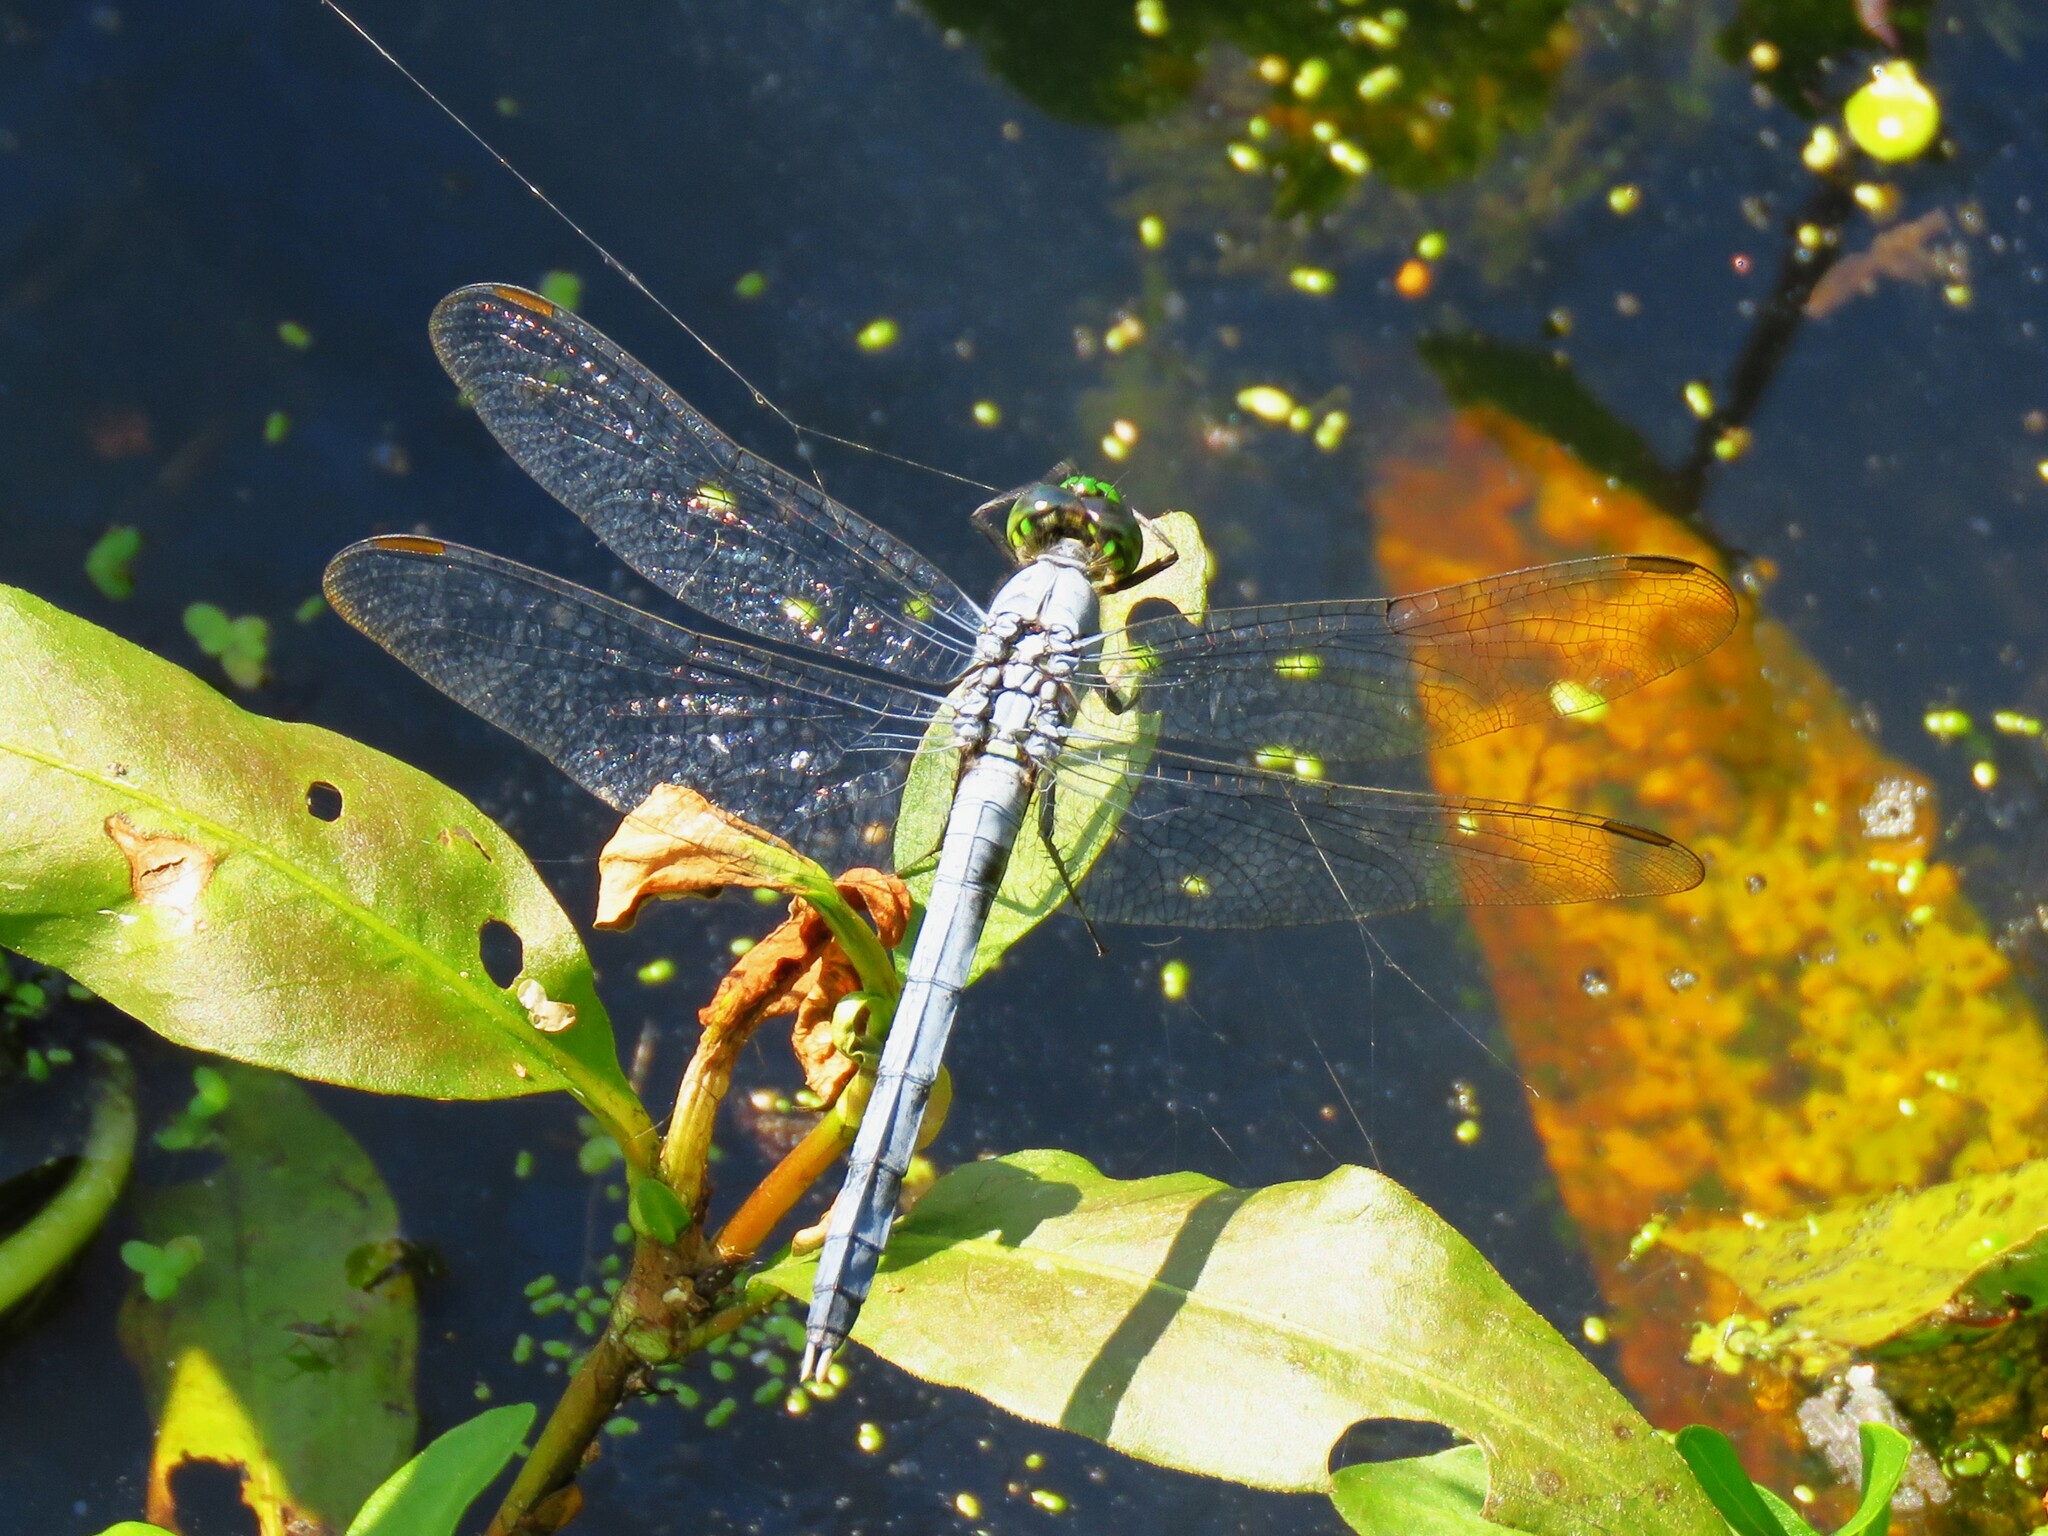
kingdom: Animalia
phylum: Arthropoda
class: Insecta
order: Odonata
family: Libellulidae
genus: Erythemis
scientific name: Erythemis simplicicollis
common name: Eastern pondhawk
